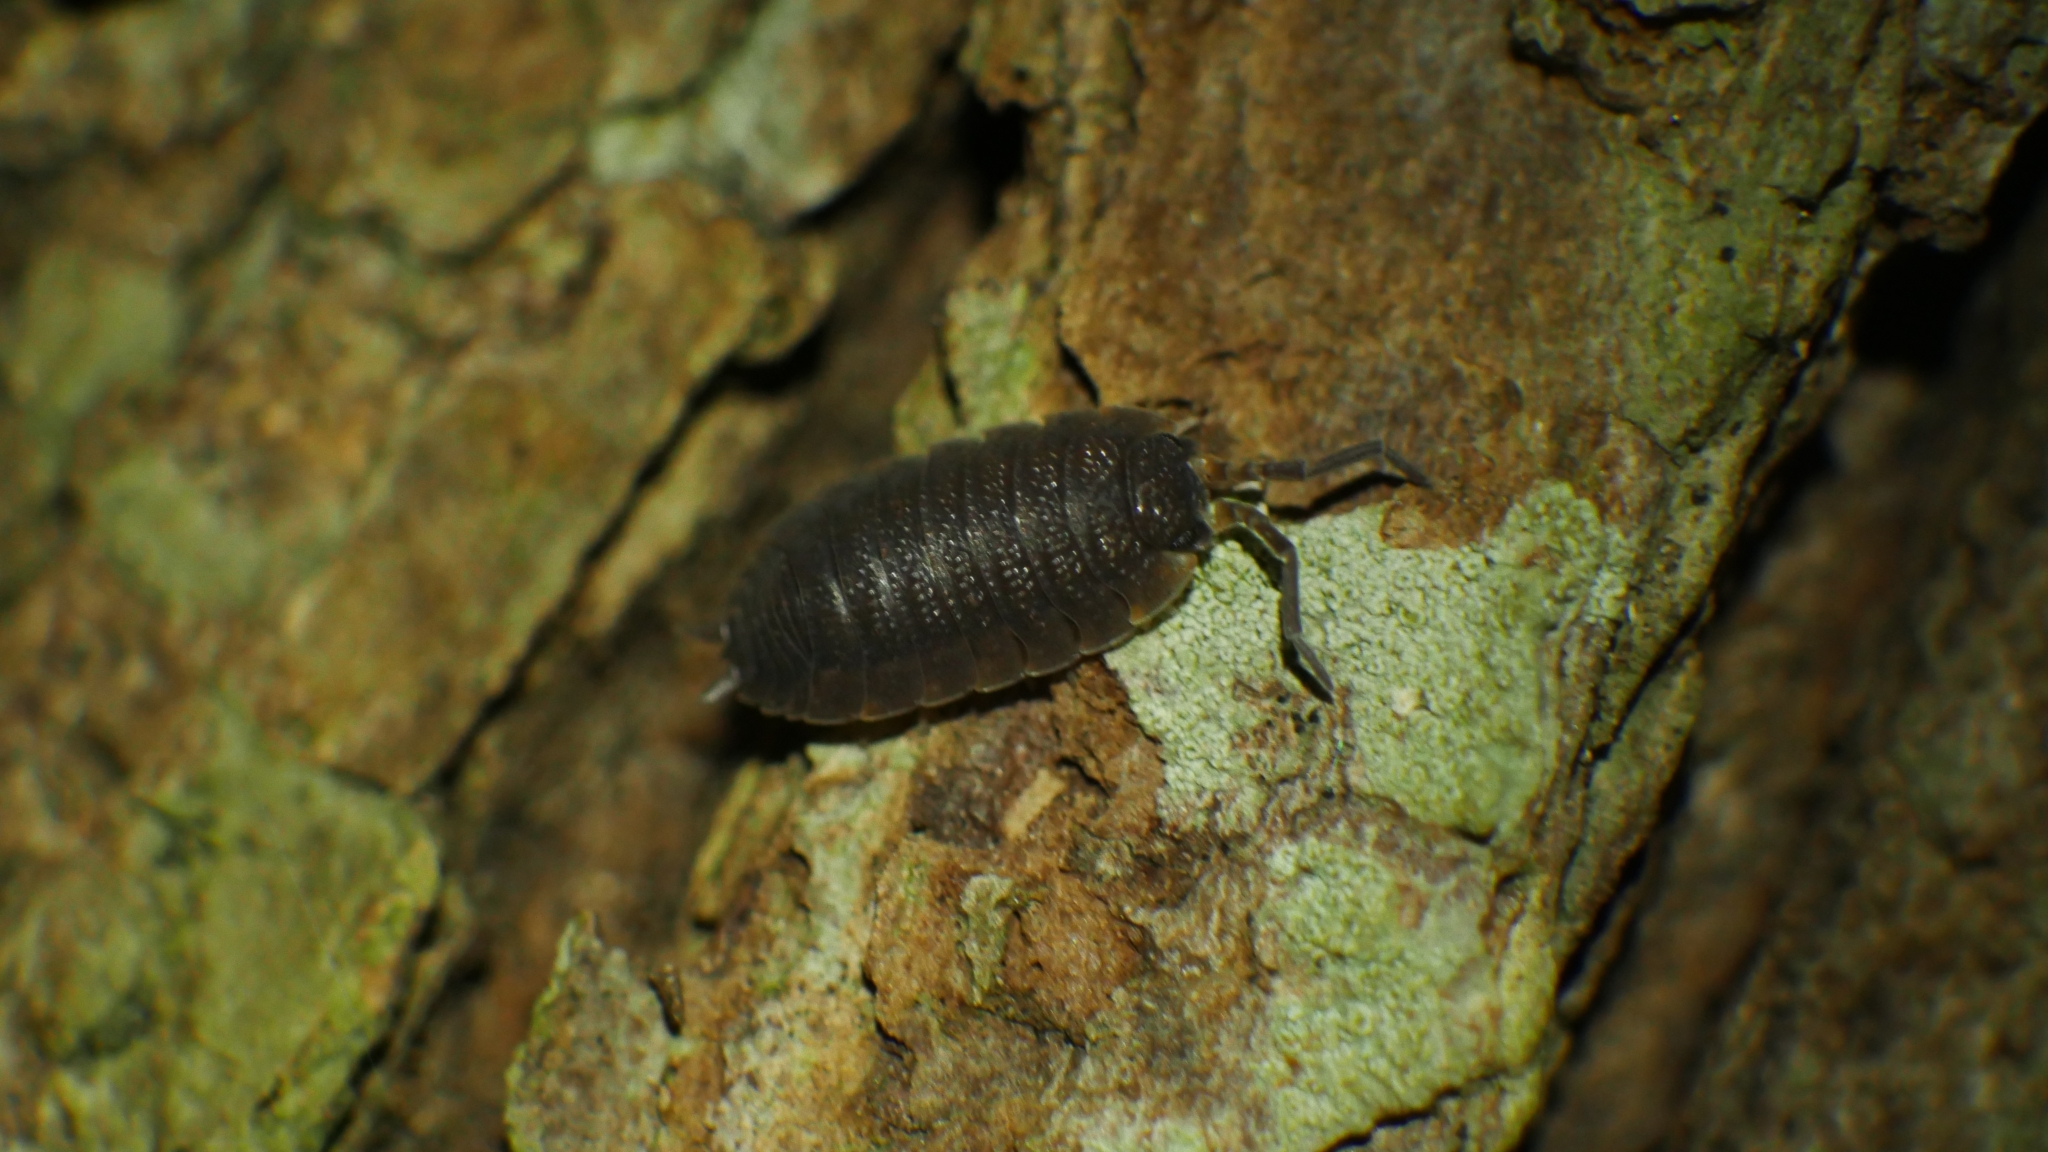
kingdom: Animalia
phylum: Arthropoda
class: Malacostraca
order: Isopoda
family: Porcellionidae
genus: Porcellio
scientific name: Porcellio scaber
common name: Common rough woodlouse
